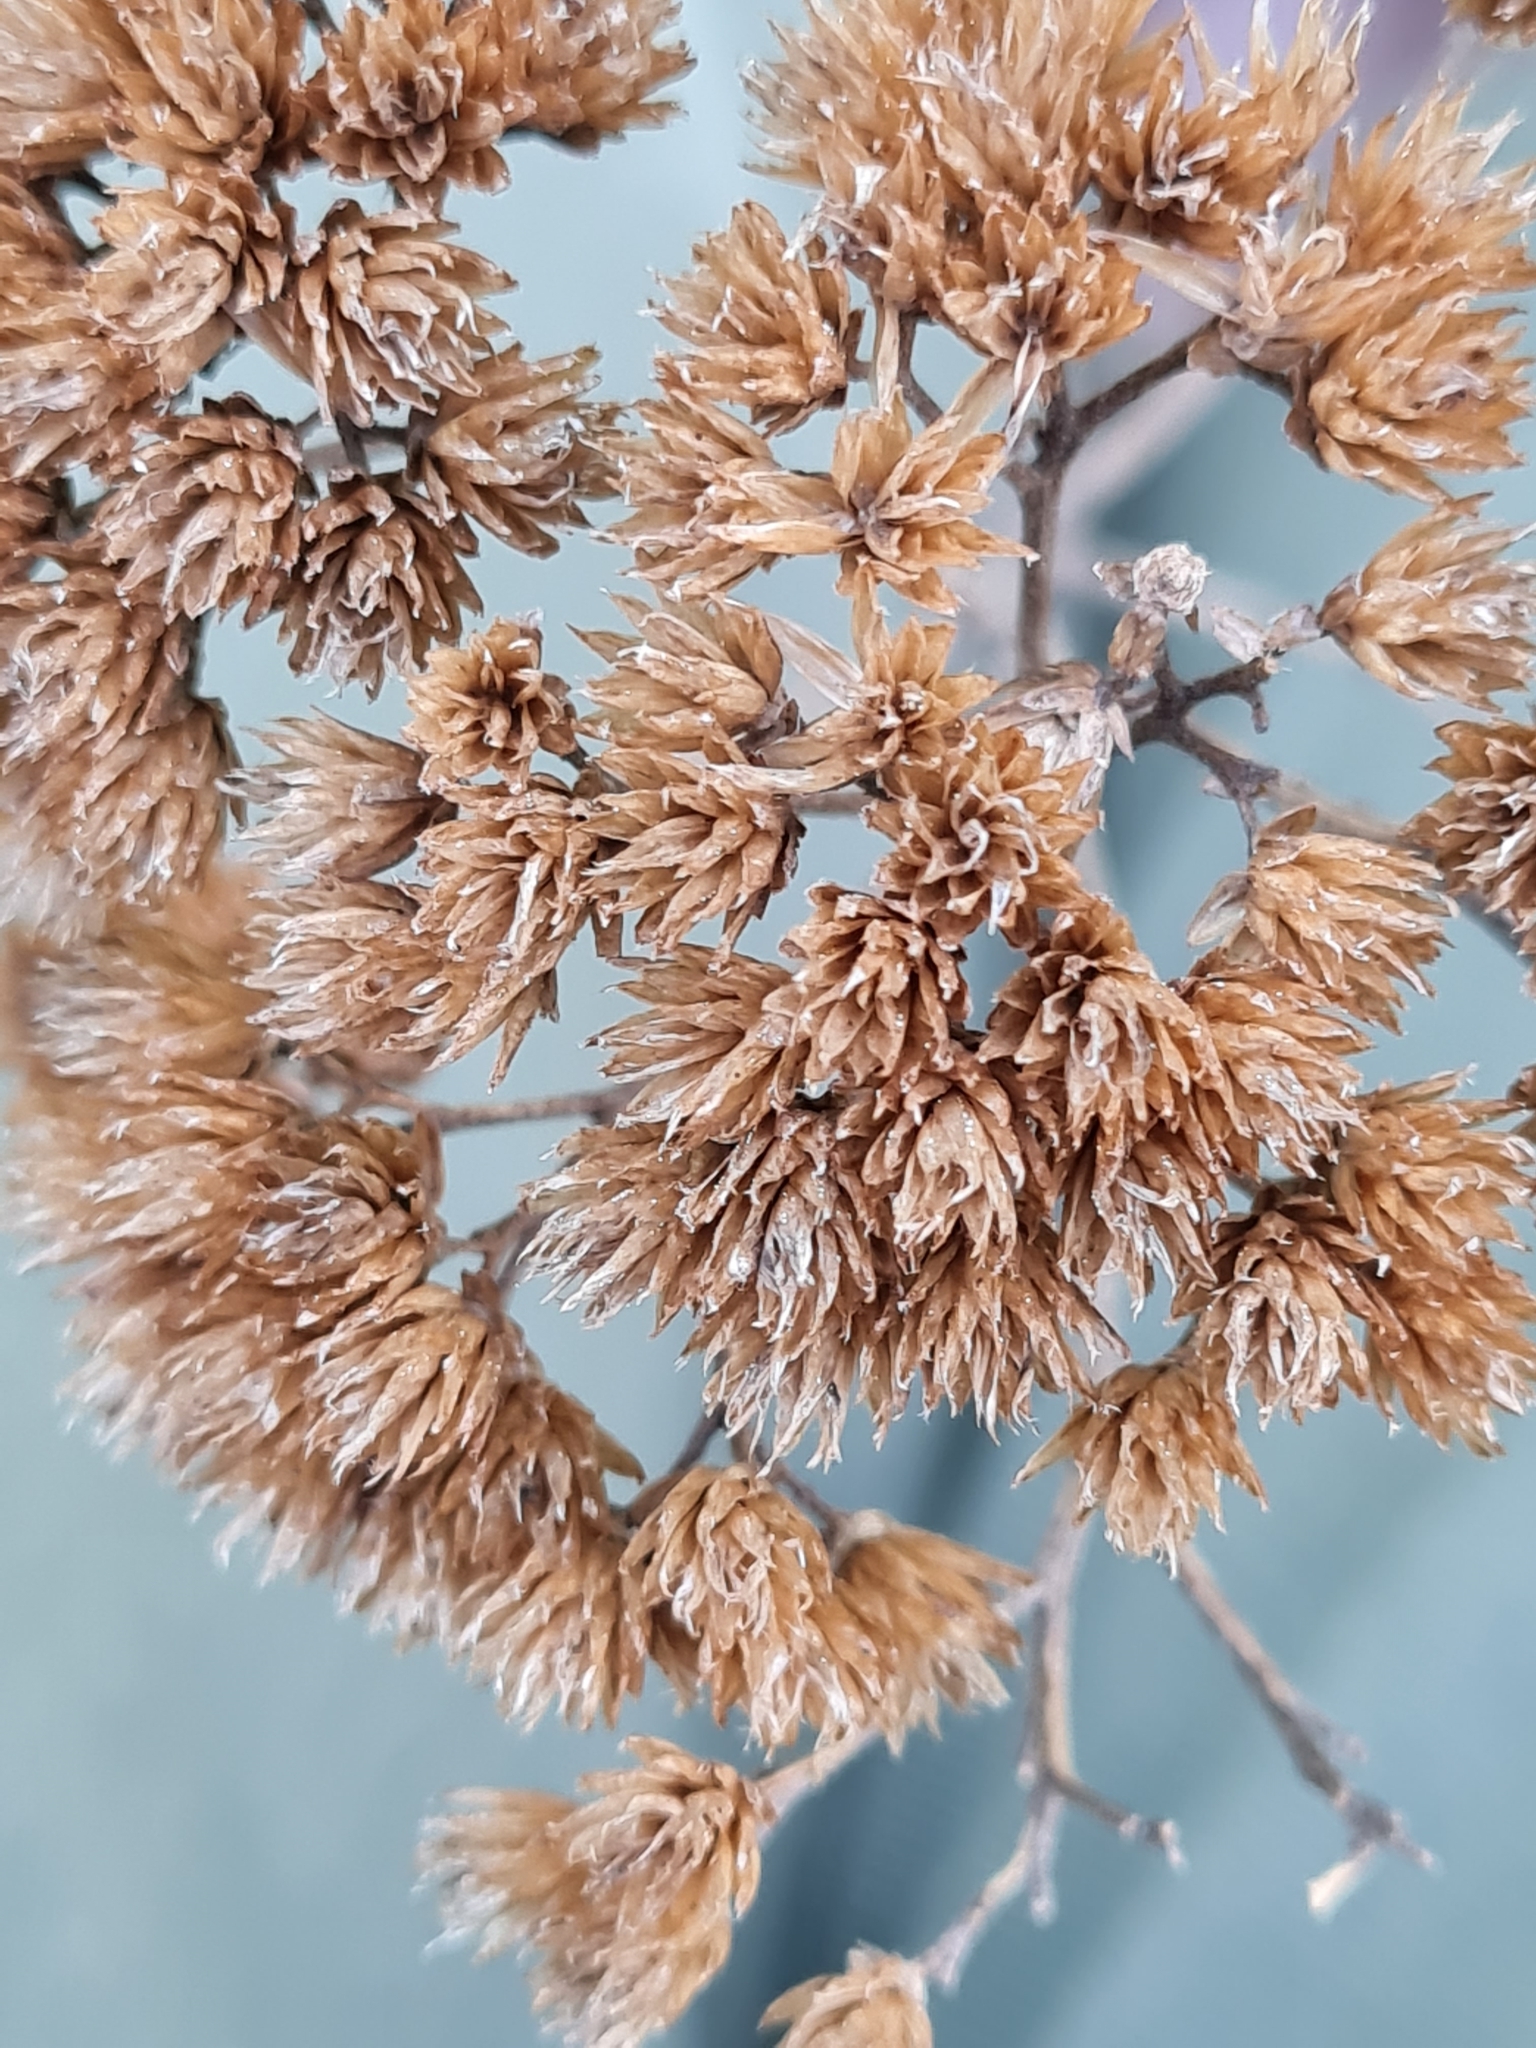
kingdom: Plantae
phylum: Tracheophyta
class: Magnoliopsida
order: Asterales
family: Asteraceae
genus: Achillea
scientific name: Achillea millefolium
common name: Yarrow
